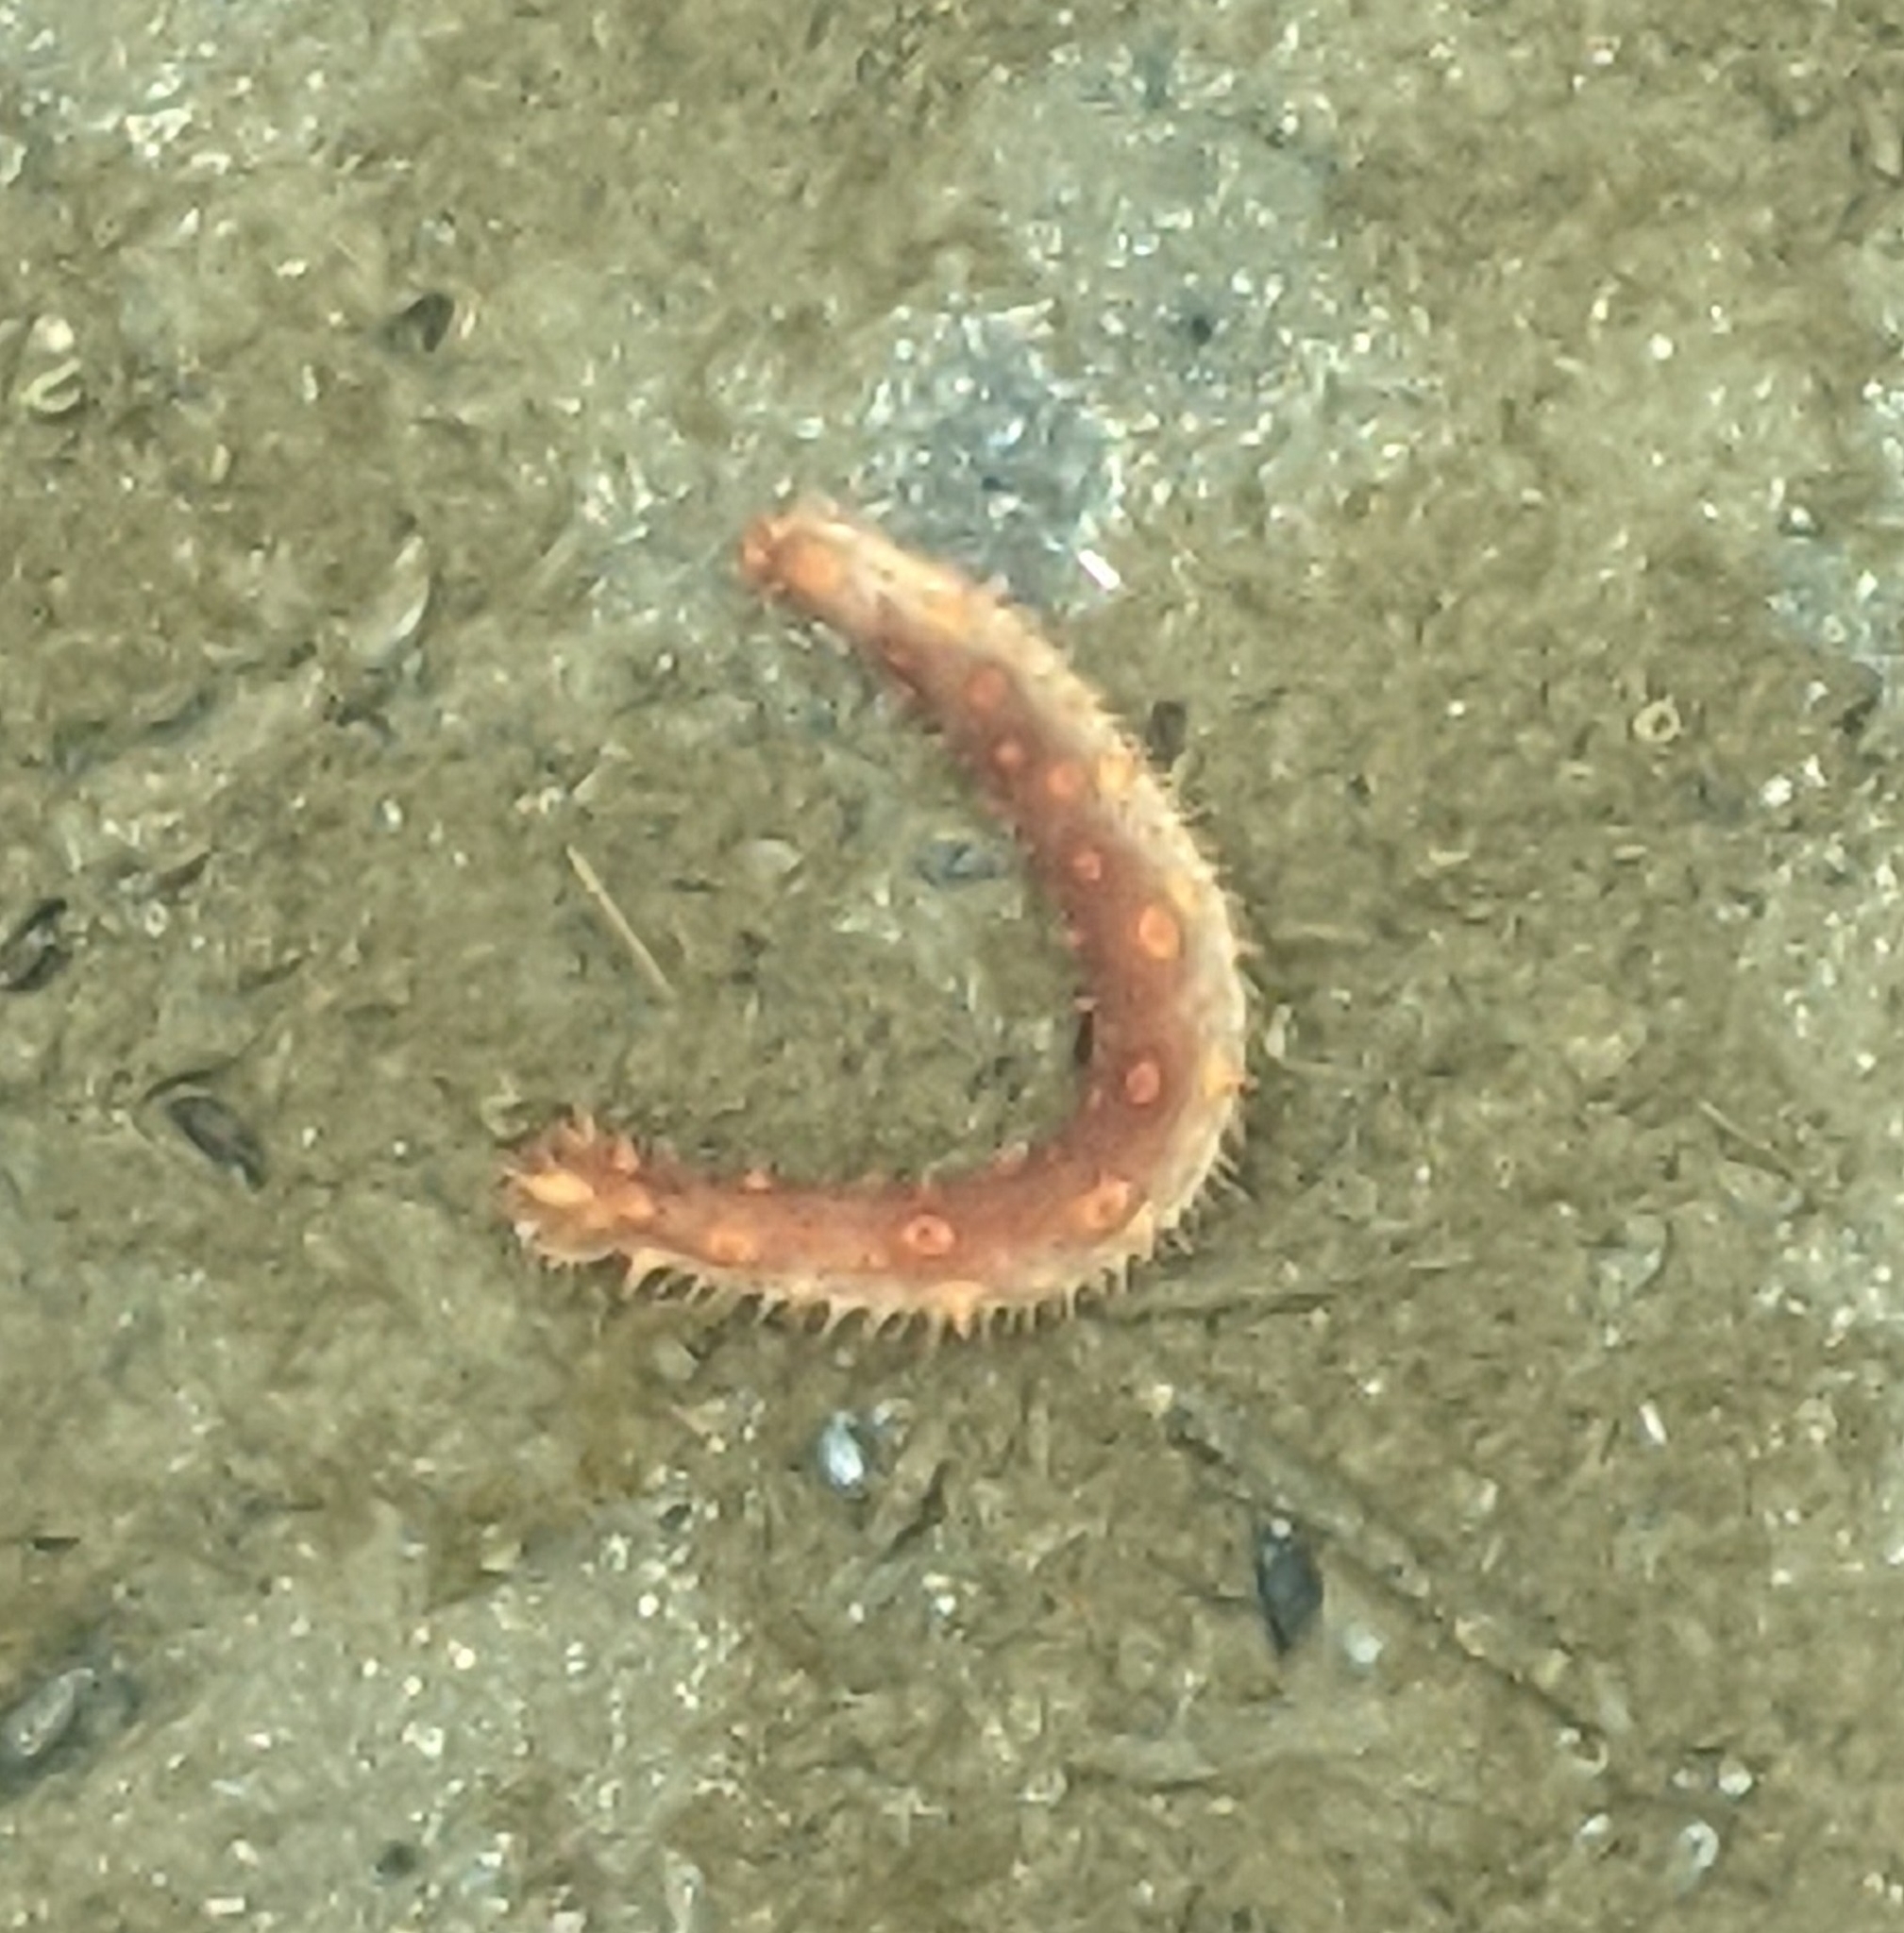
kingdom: Animalia
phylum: Echinodermata
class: Holothuroidea
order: Synallactida
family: Stichopodidae
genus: Apostichopus
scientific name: Apostichopus californicus
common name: California sea cucumber
